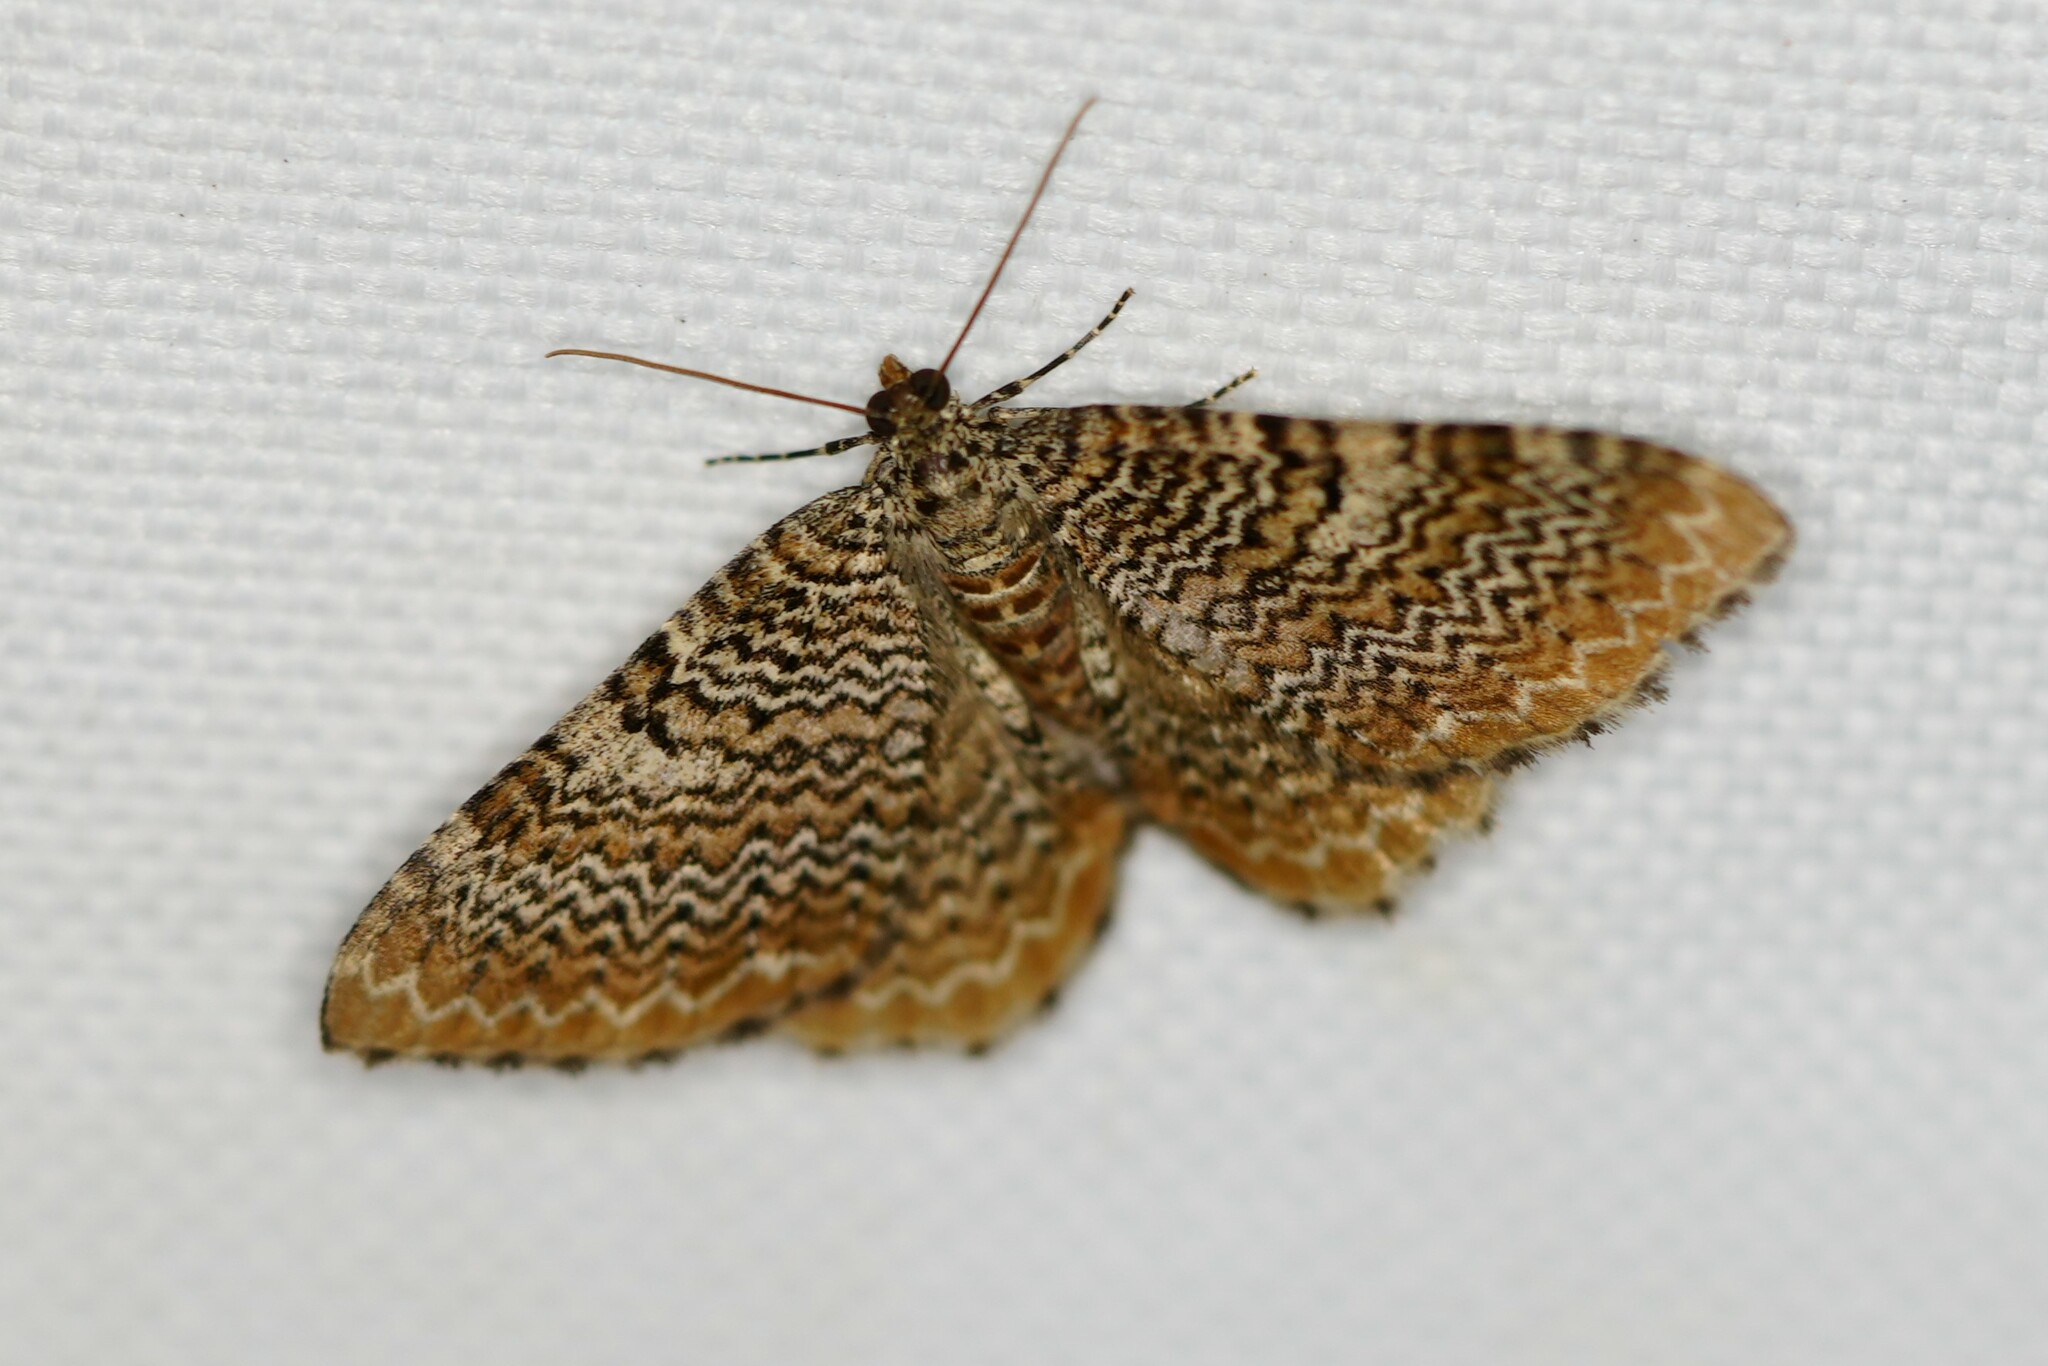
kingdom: Animalia
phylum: Arthropoda
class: Insecta
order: Lepidoptera
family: Geometridae
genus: Rheumaptera
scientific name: Rheumaptera prunivorata
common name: Cherry scallop shell moth
